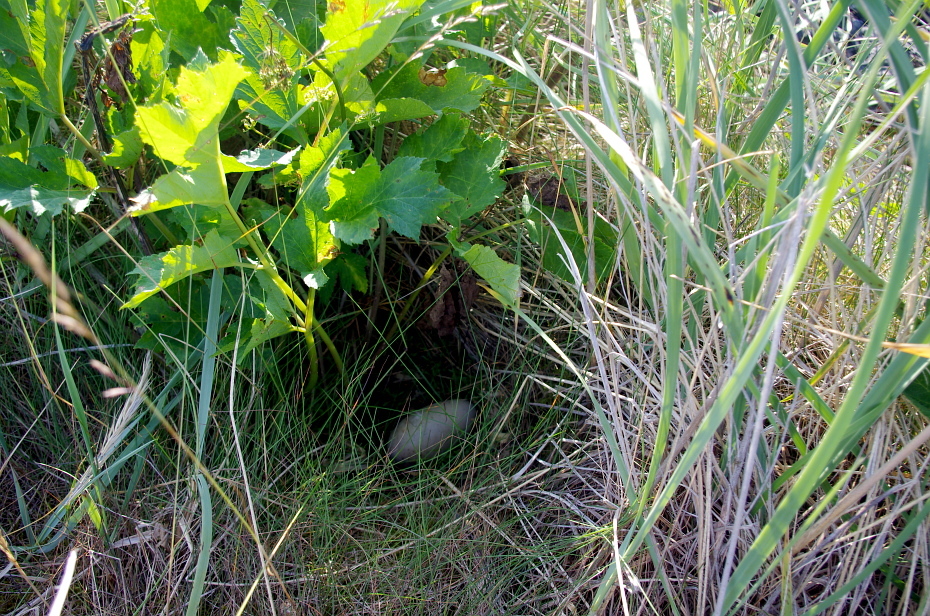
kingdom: Animalia
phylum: Chordata
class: Aves
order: Anseriformes
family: Anatidae
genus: Somateria
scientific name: Somateria mollissima
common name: Common eider
